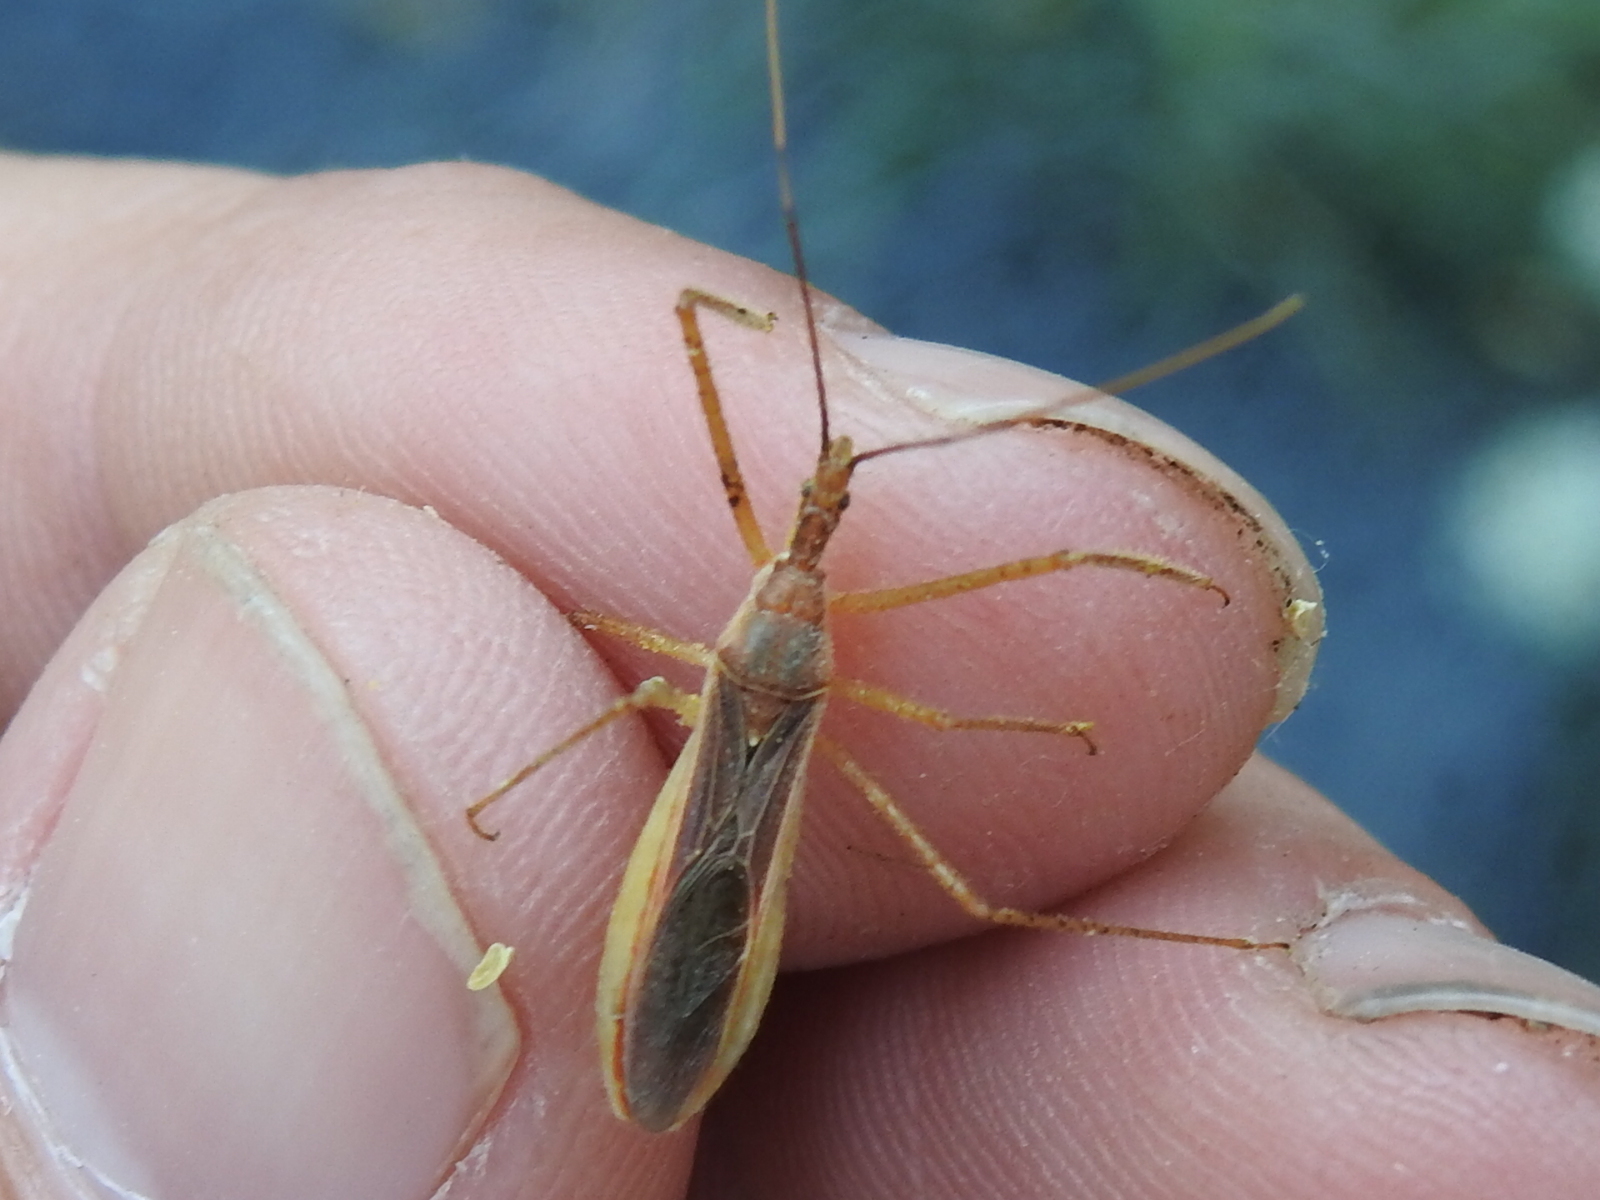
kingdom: Animalia
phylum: Arthropoda
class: Insecta
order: Hemiptera
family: Reduviidae
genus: Zelus
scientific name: Zelus cervicalis
